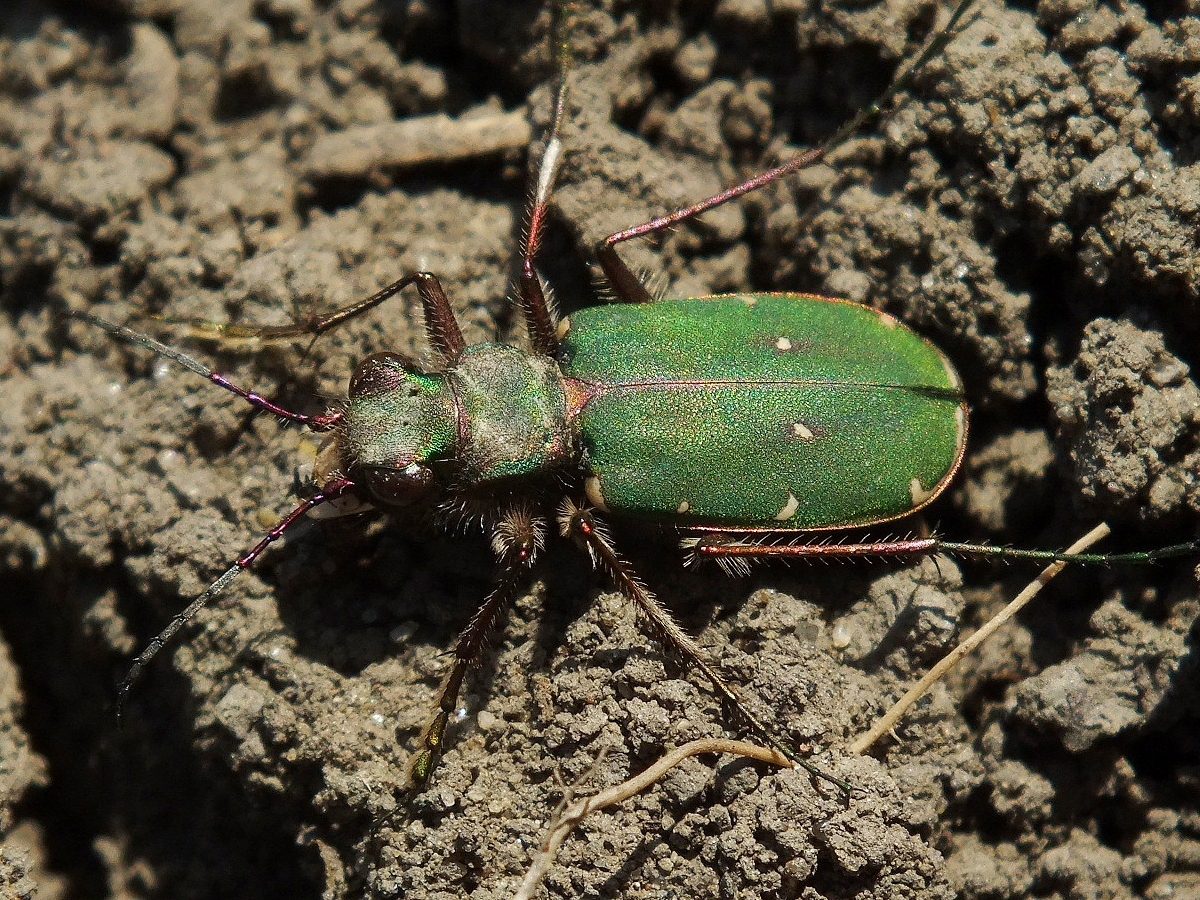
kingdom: Animalia
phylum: Arthropoda
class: Insecta
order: Coleoptera
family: Carabidae
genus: Cicindela
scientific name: Cicindela campestris
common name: Common tiger beetle
